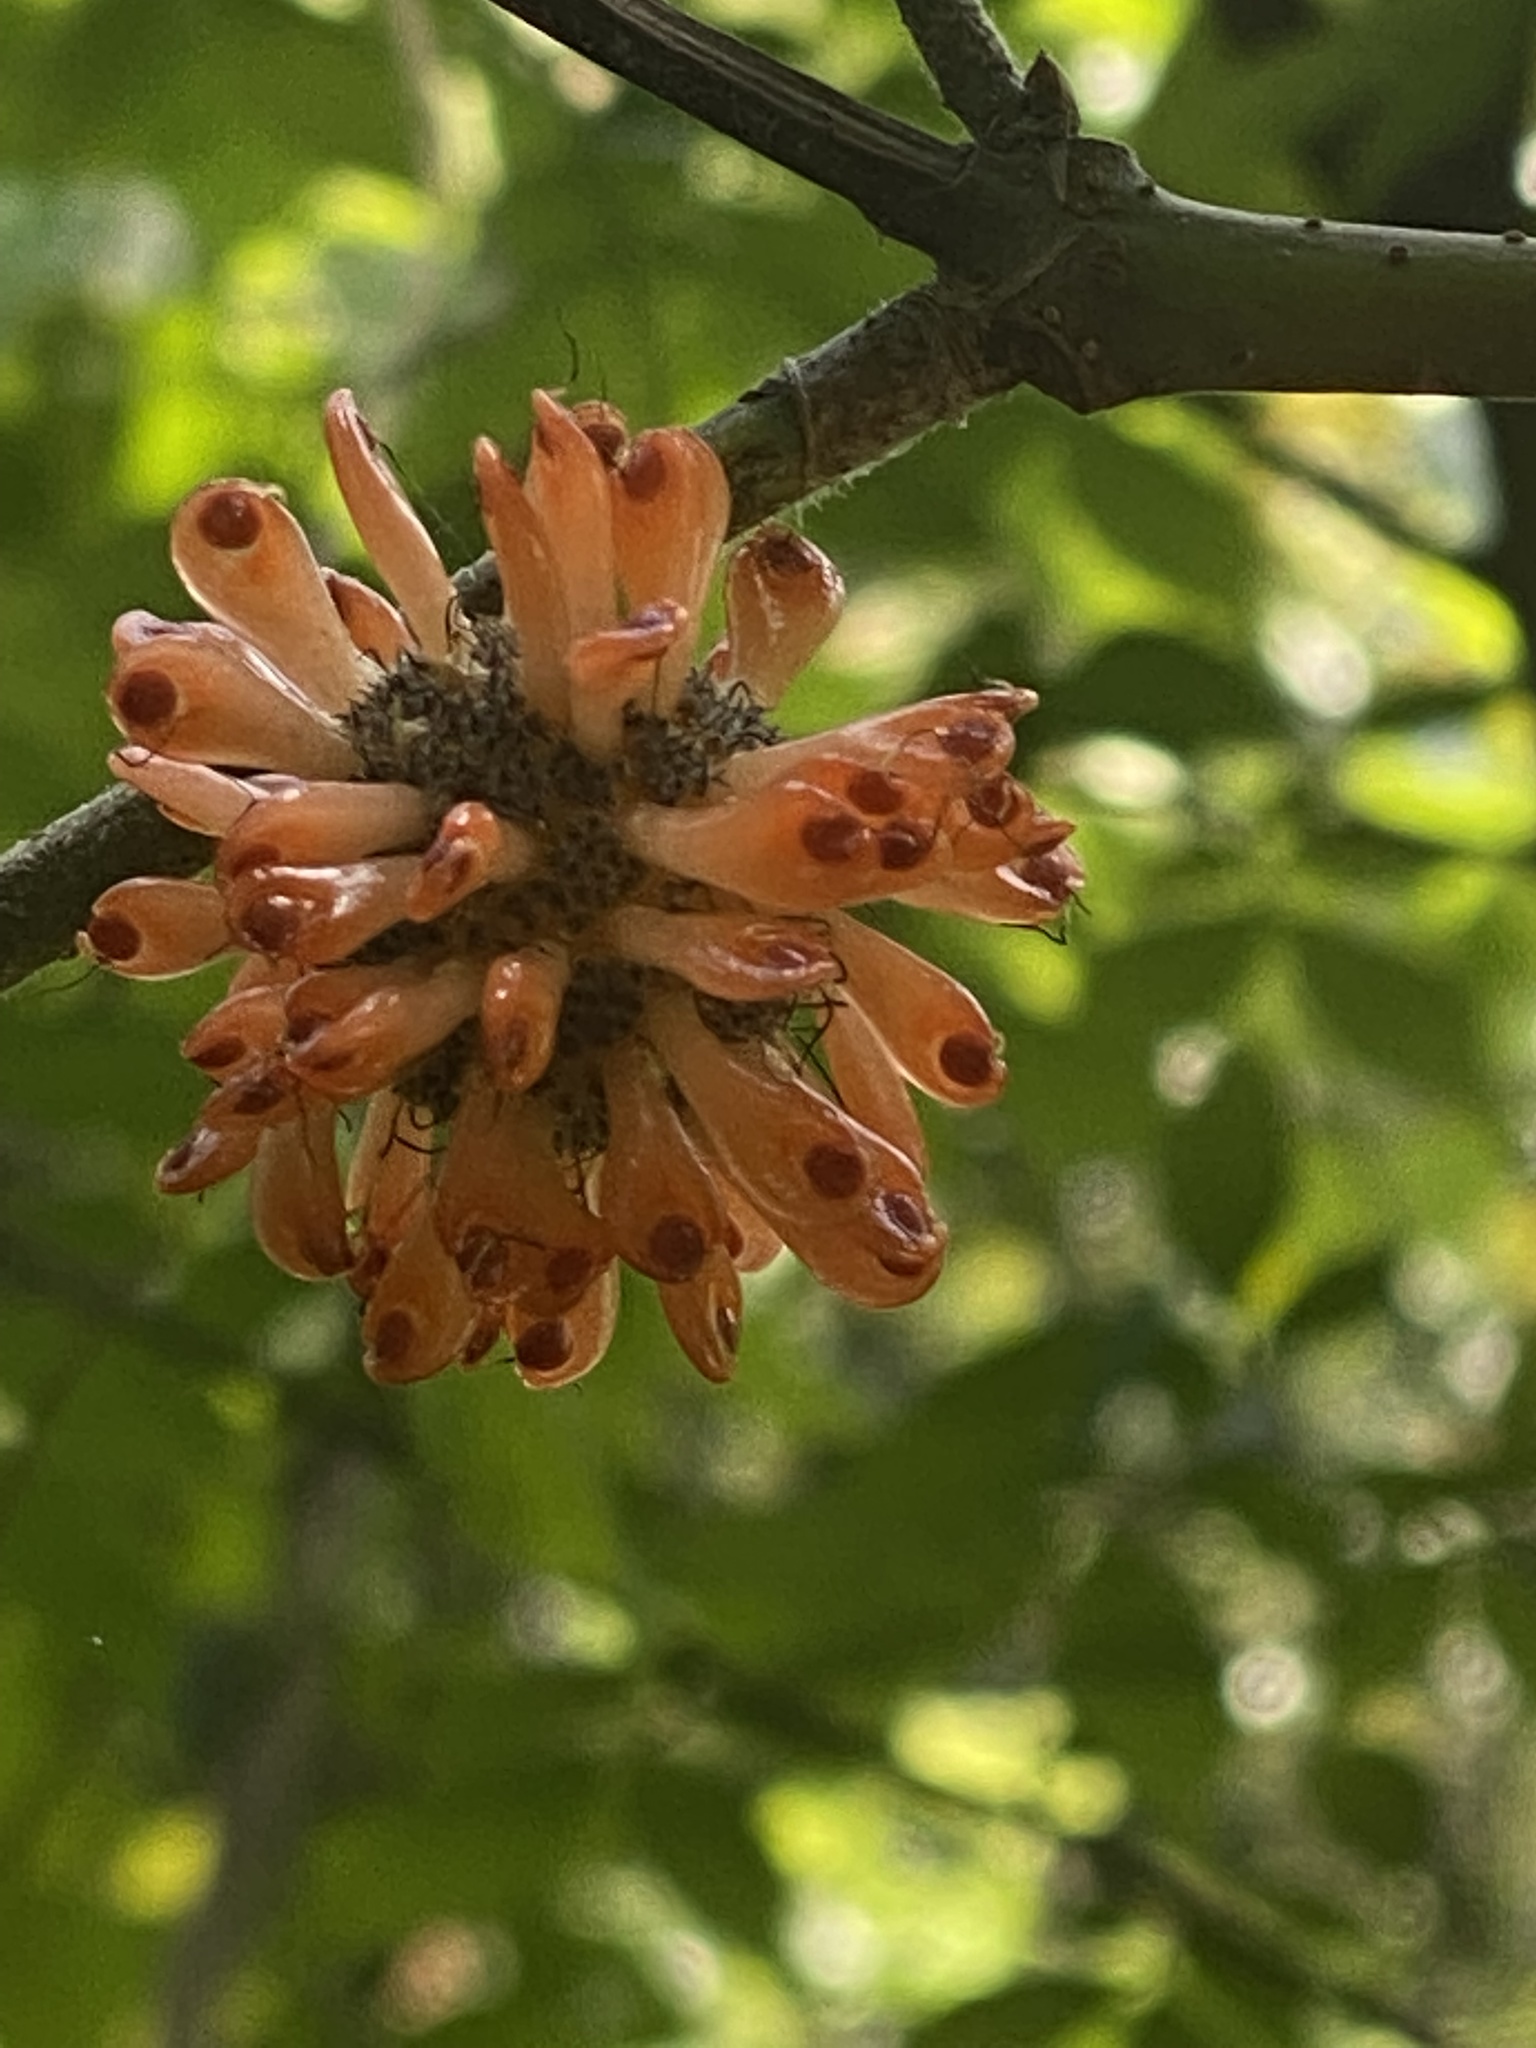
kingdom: Plantae
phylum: Tracheophyta
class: Magnoliopsida
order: Rosales
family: Moraceae
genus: Broussonetia
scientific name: Broussonetia papyrifera
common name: Paper mulberry
